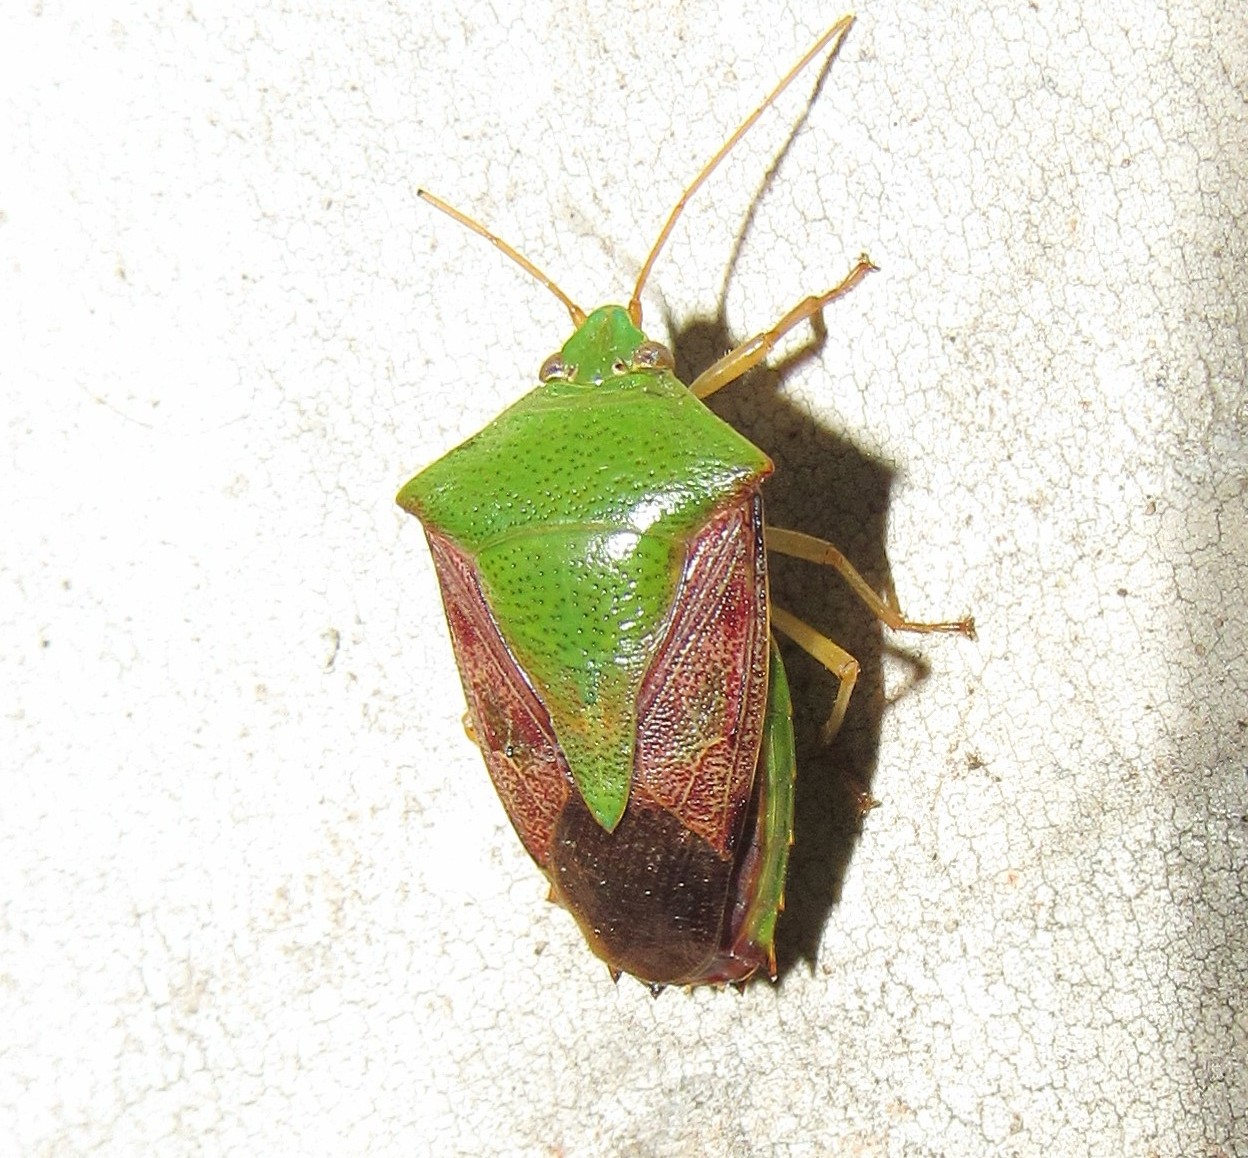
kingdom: Animalia
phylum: Arthropoda
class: Insecta
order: Hemiptera
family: Pentatomidae
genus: Hypoxys
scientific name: Hypoxys subrastratus
